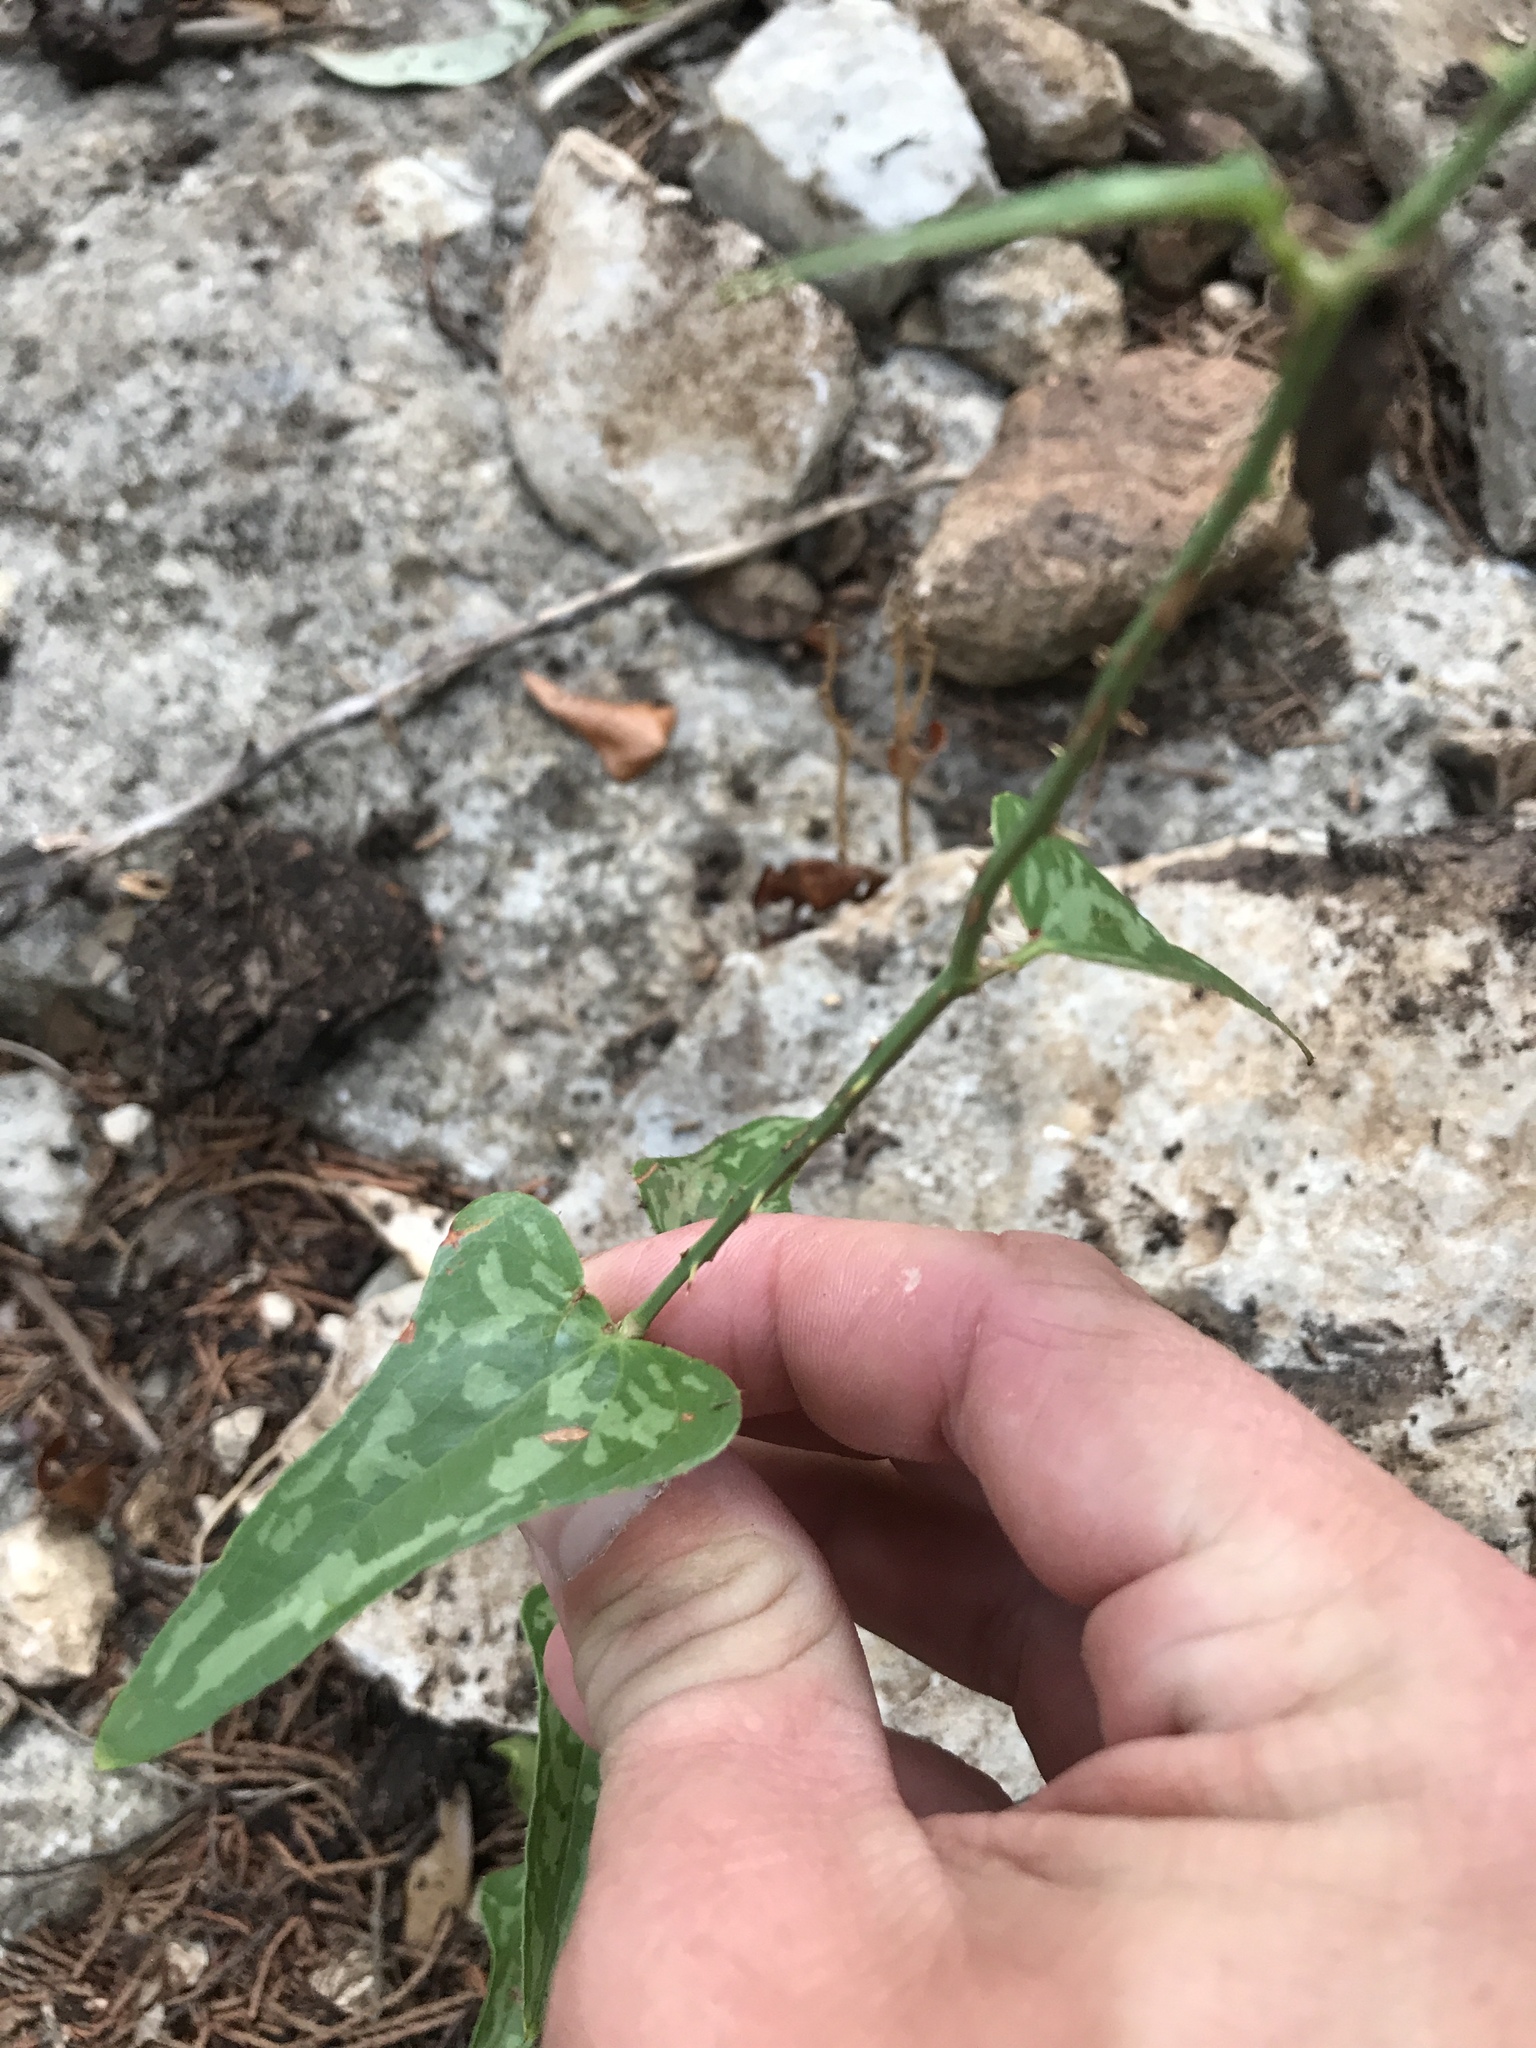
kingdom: Plantae
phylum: Tracheophyta
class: Liliopsida
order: Liliales
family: Smilacaceae
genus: Smilax
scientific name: Smilax bona-nox
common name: Catbrier
